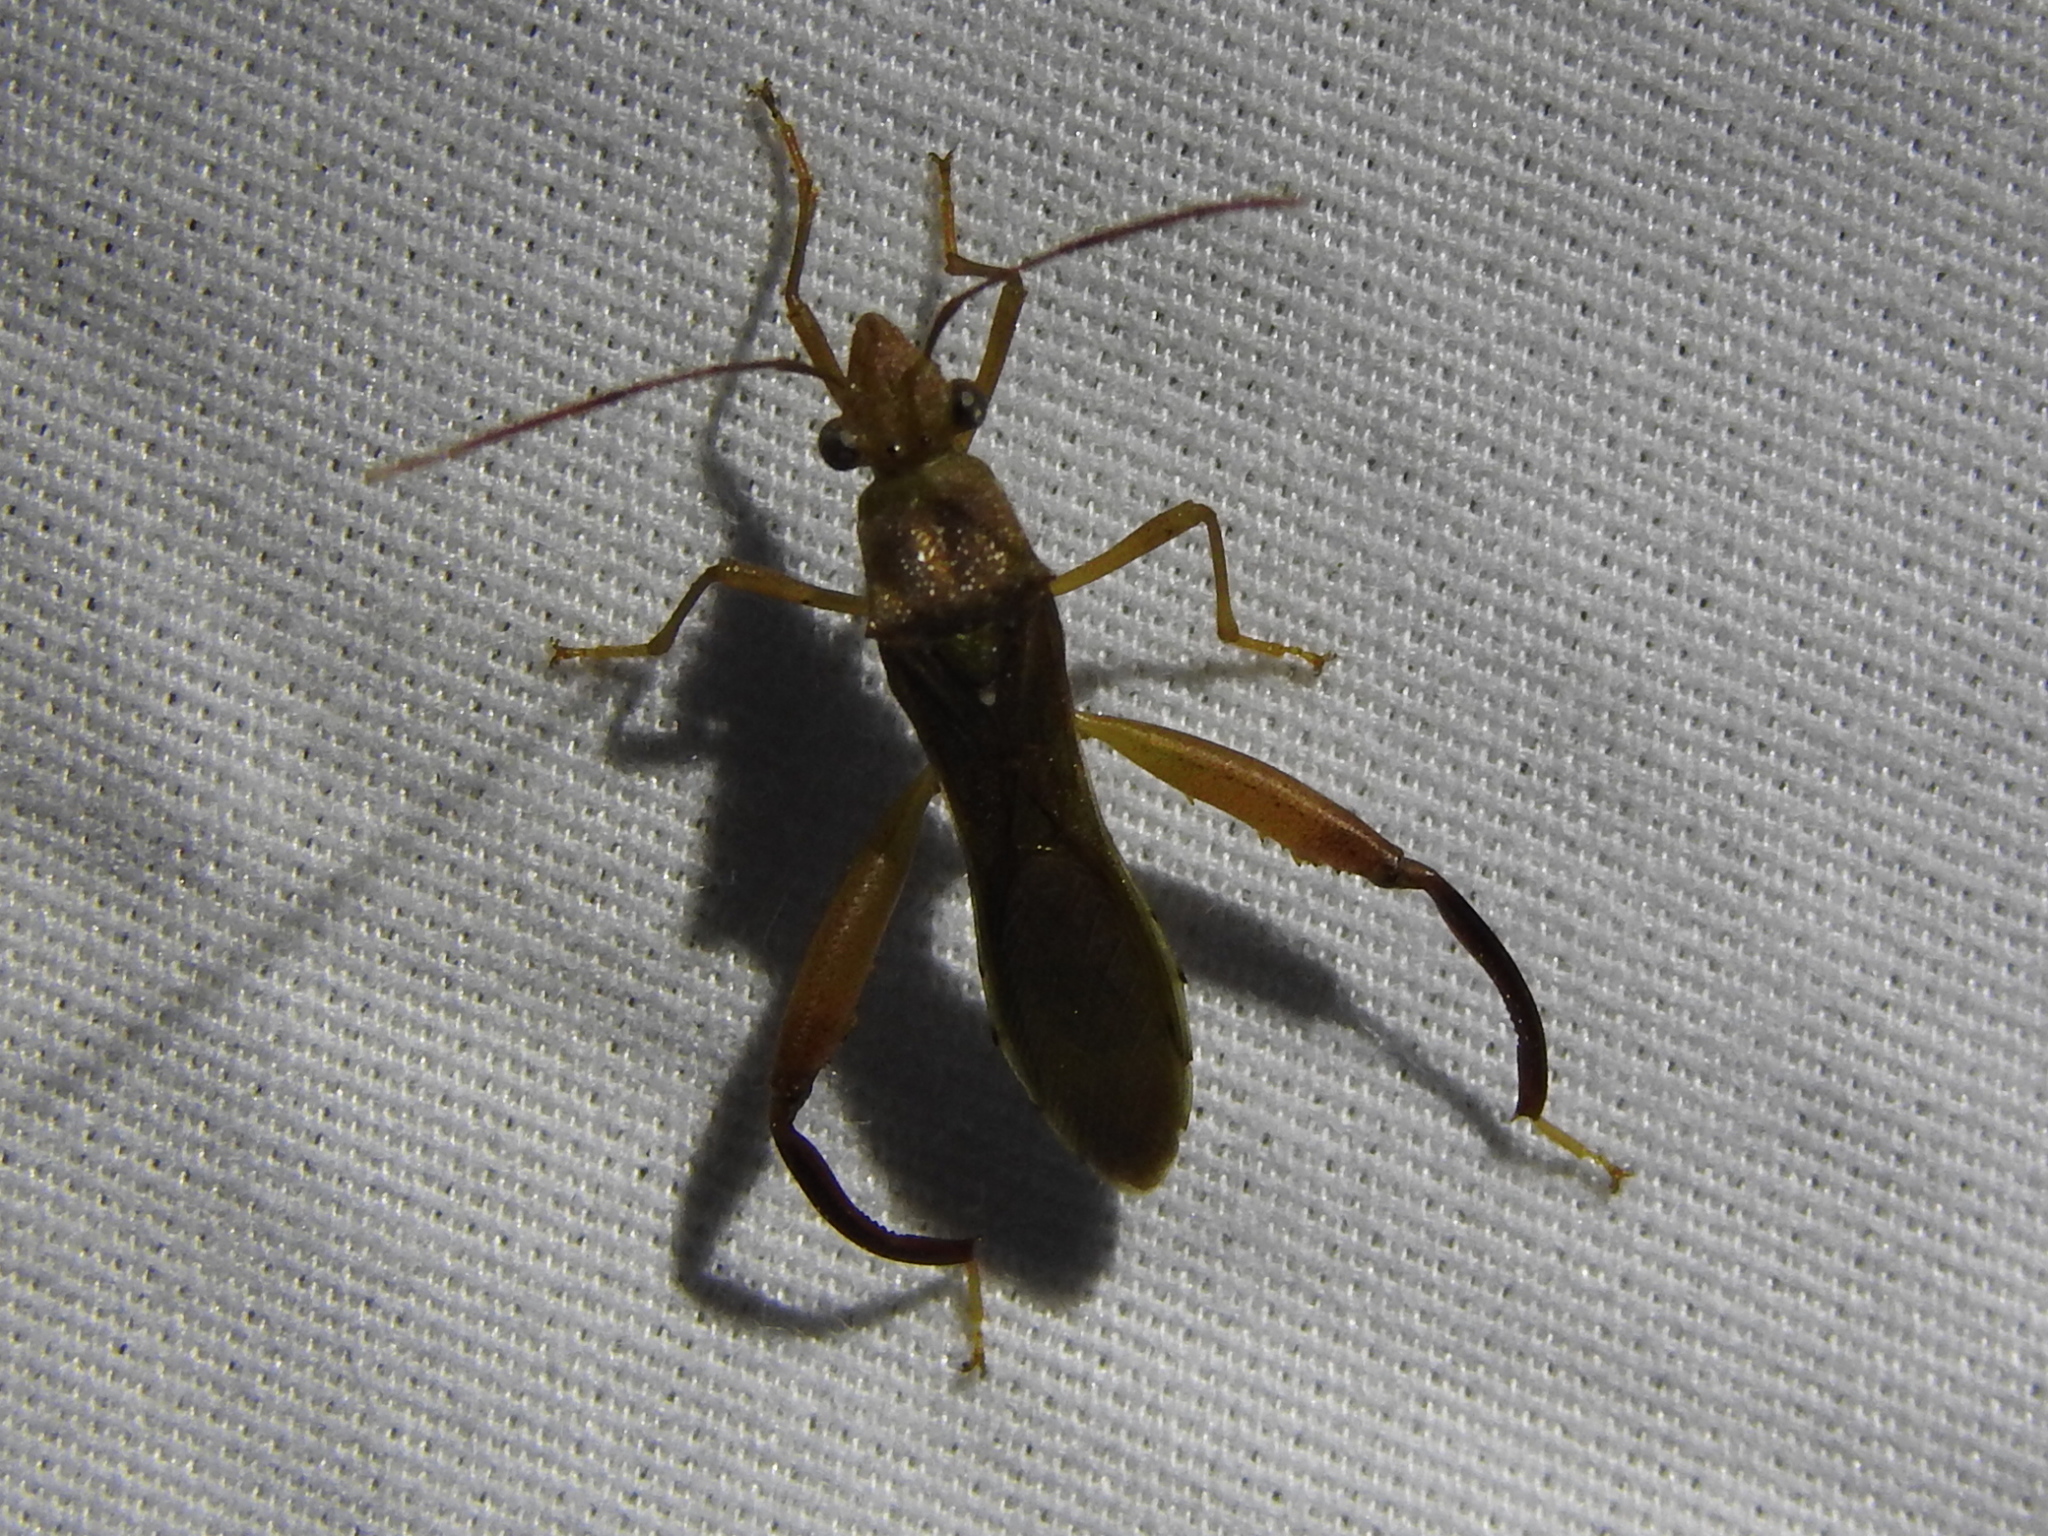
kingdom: Animalia
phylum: Arthropoda
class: Insecta
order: Hemiptera
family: Alydidae
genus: Hyalymenus
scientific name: Hyalymenus tarsatus
